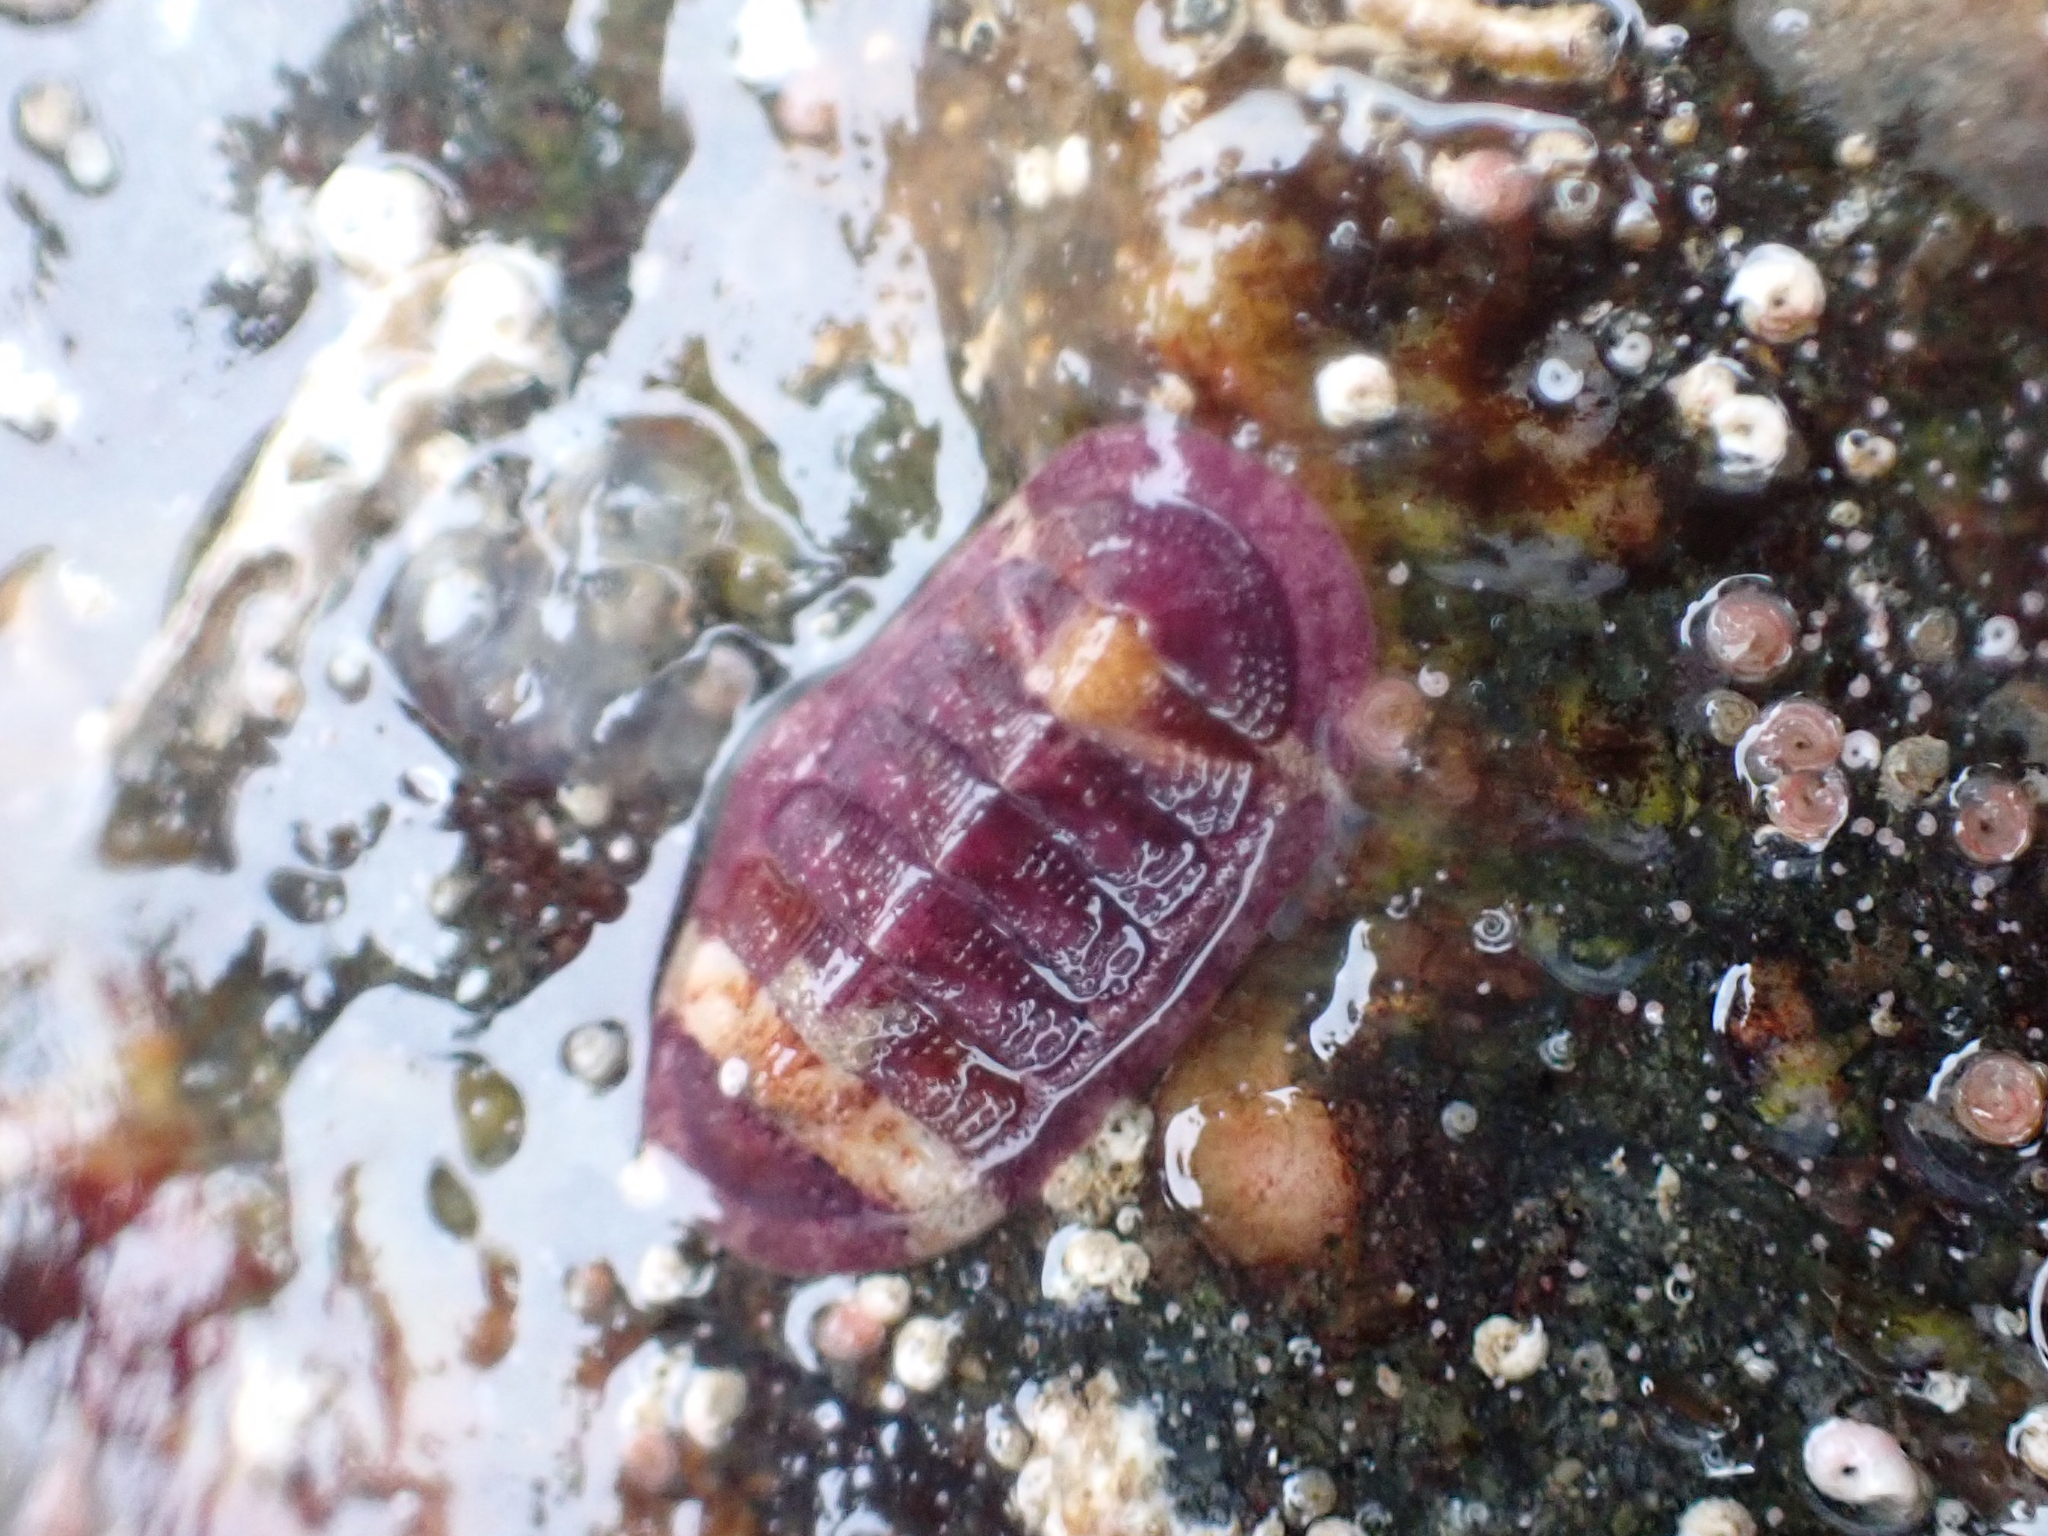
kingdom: Animalia
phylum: Mollusca
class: Polyplacophora
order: Chitonida
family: Ischnochitonidae
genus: Lepidozona
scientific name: Lepidozona mertensii
